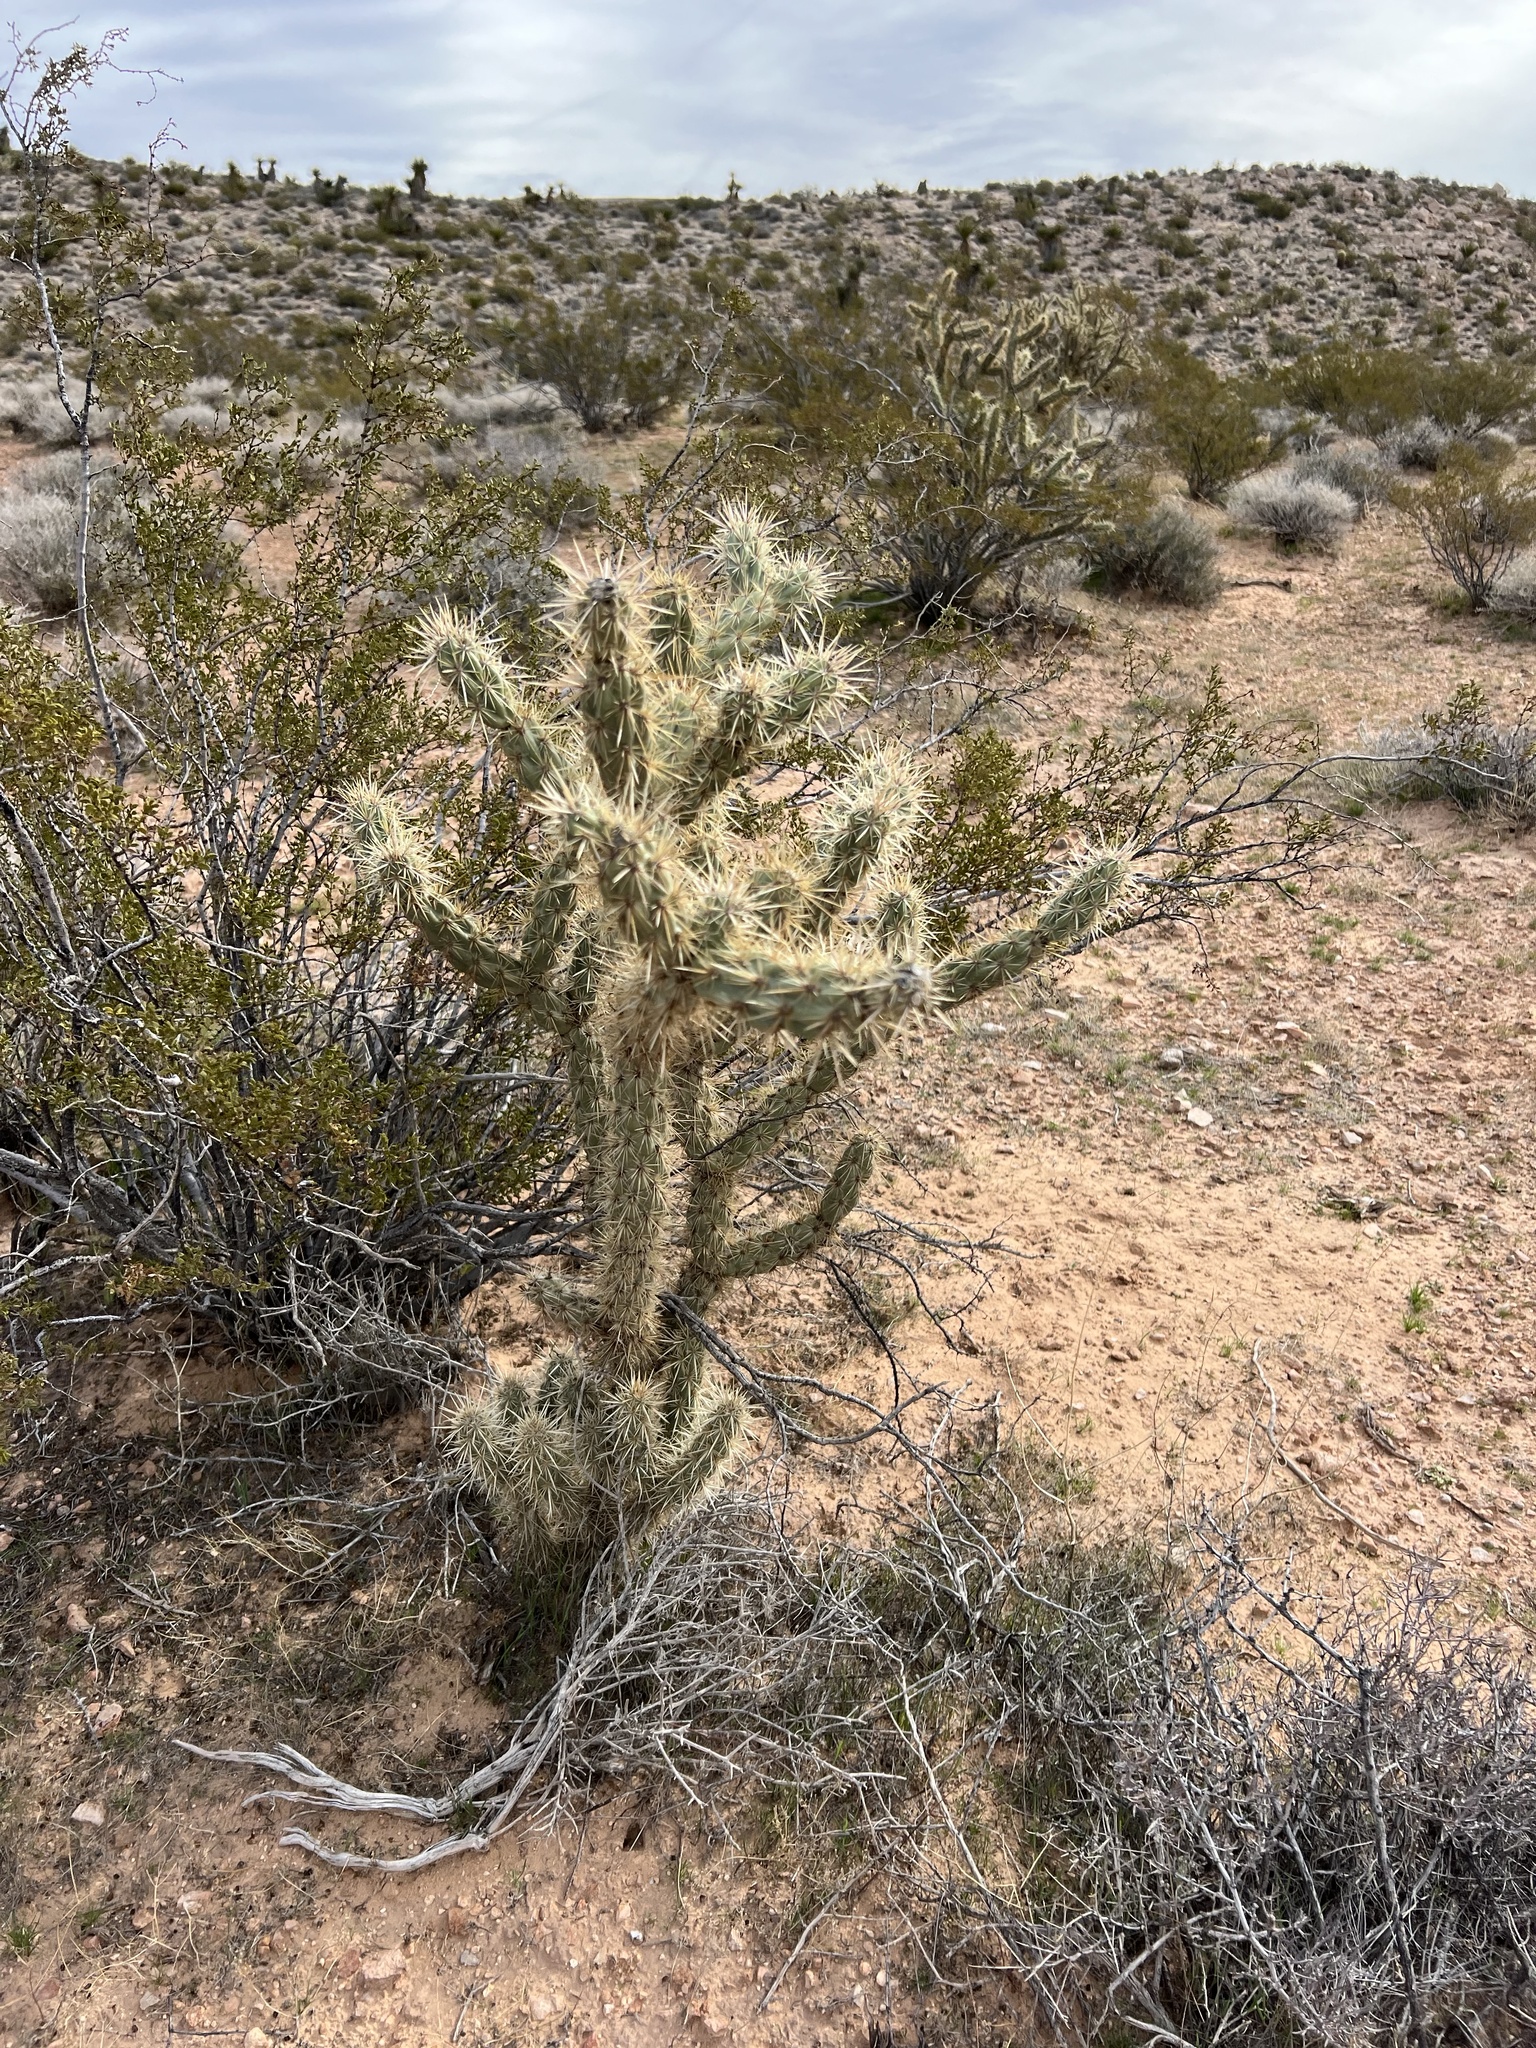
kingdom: Plantae
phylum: Tracheophyta
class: Magnoliopsida
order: Caryophyllales
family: Cactaceae
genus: Cylindropuntia
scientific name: Cylindropuntia acanthocarpa
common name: Buckhorn cholla
